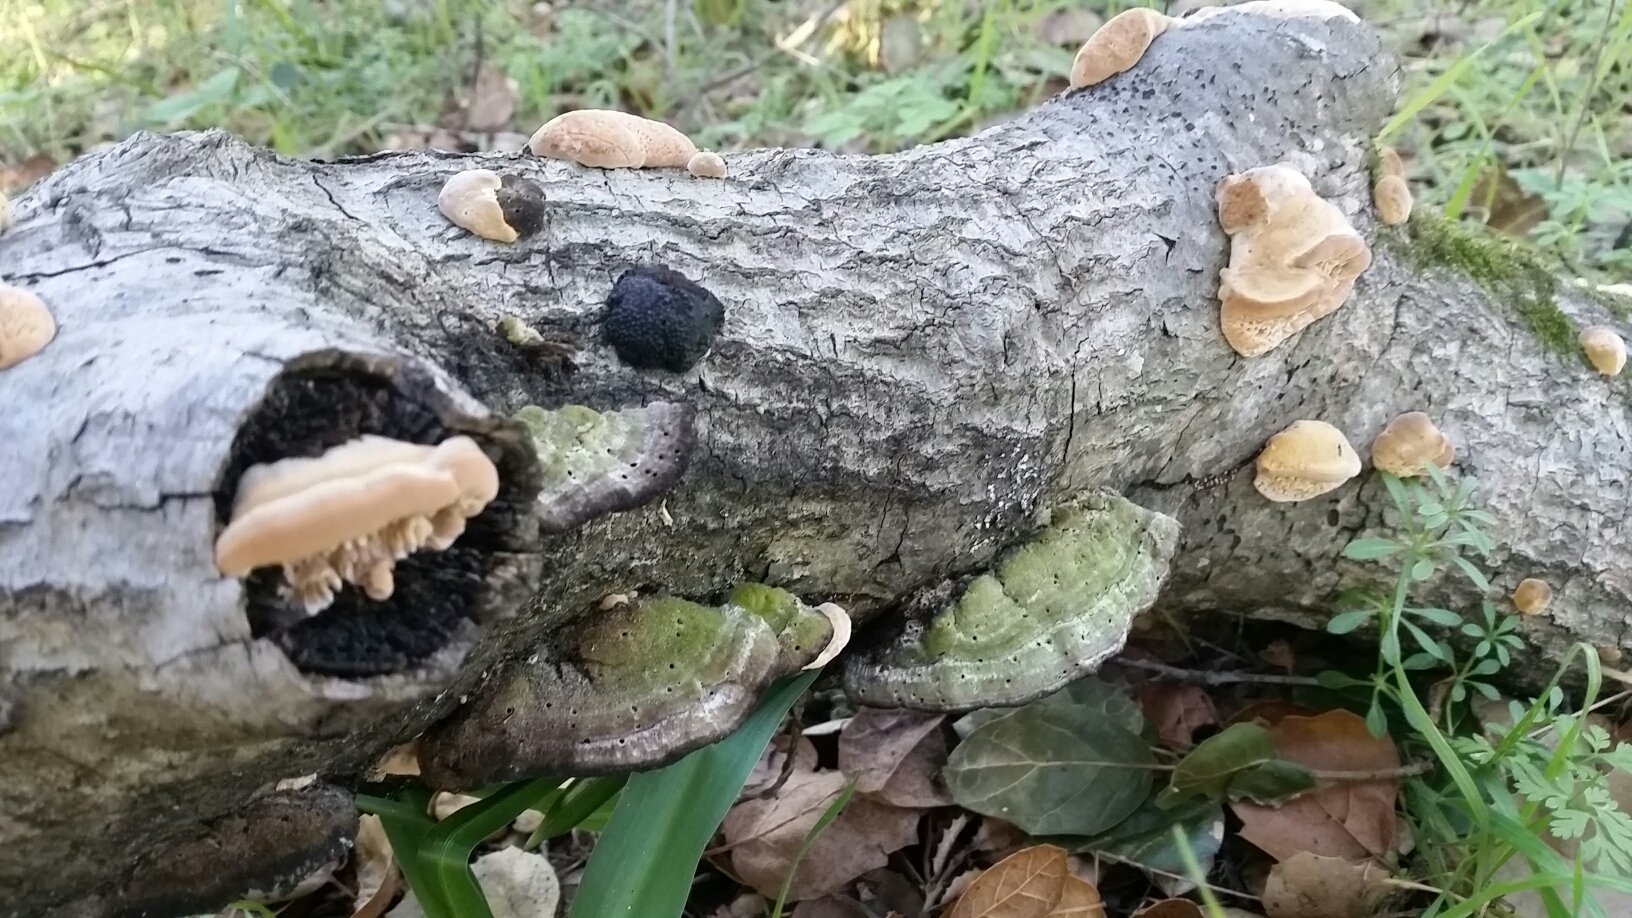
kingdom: Fungi
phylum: Basidiomycota
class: Agaricomycetes
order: Polyporales
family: Polyporaceae
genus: Lenzites
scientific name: Lenzites betulinus
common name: Birch mazegill
